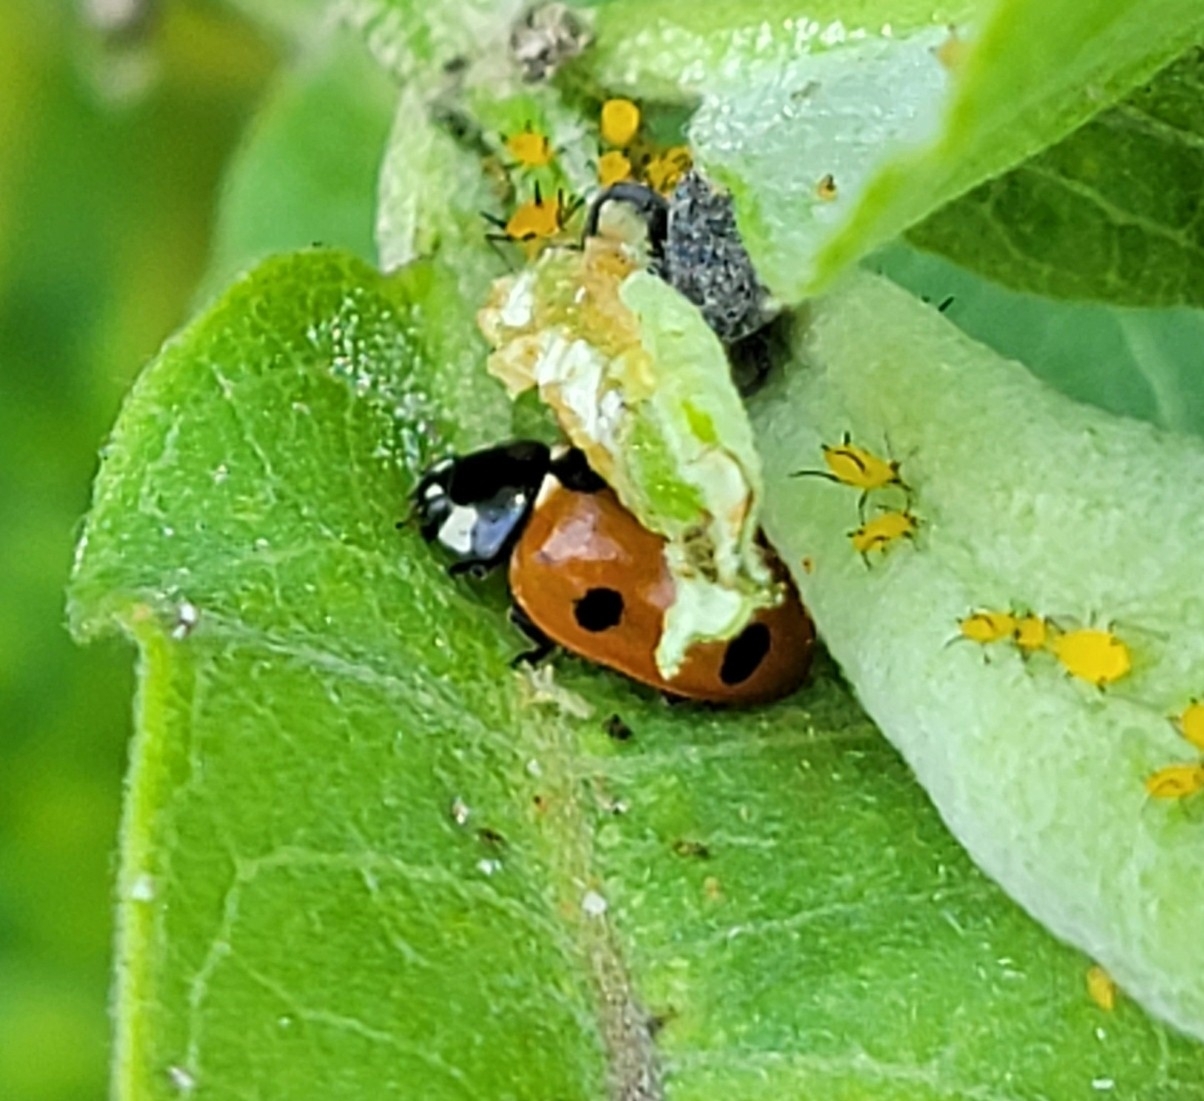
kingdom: Animalia
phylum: Arthropoda
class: Insecta
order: Coleoptera
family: Coccinellidae
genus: Coccinella
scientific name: Coccinella septempunctata
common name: Sevenspotted lady beetle
